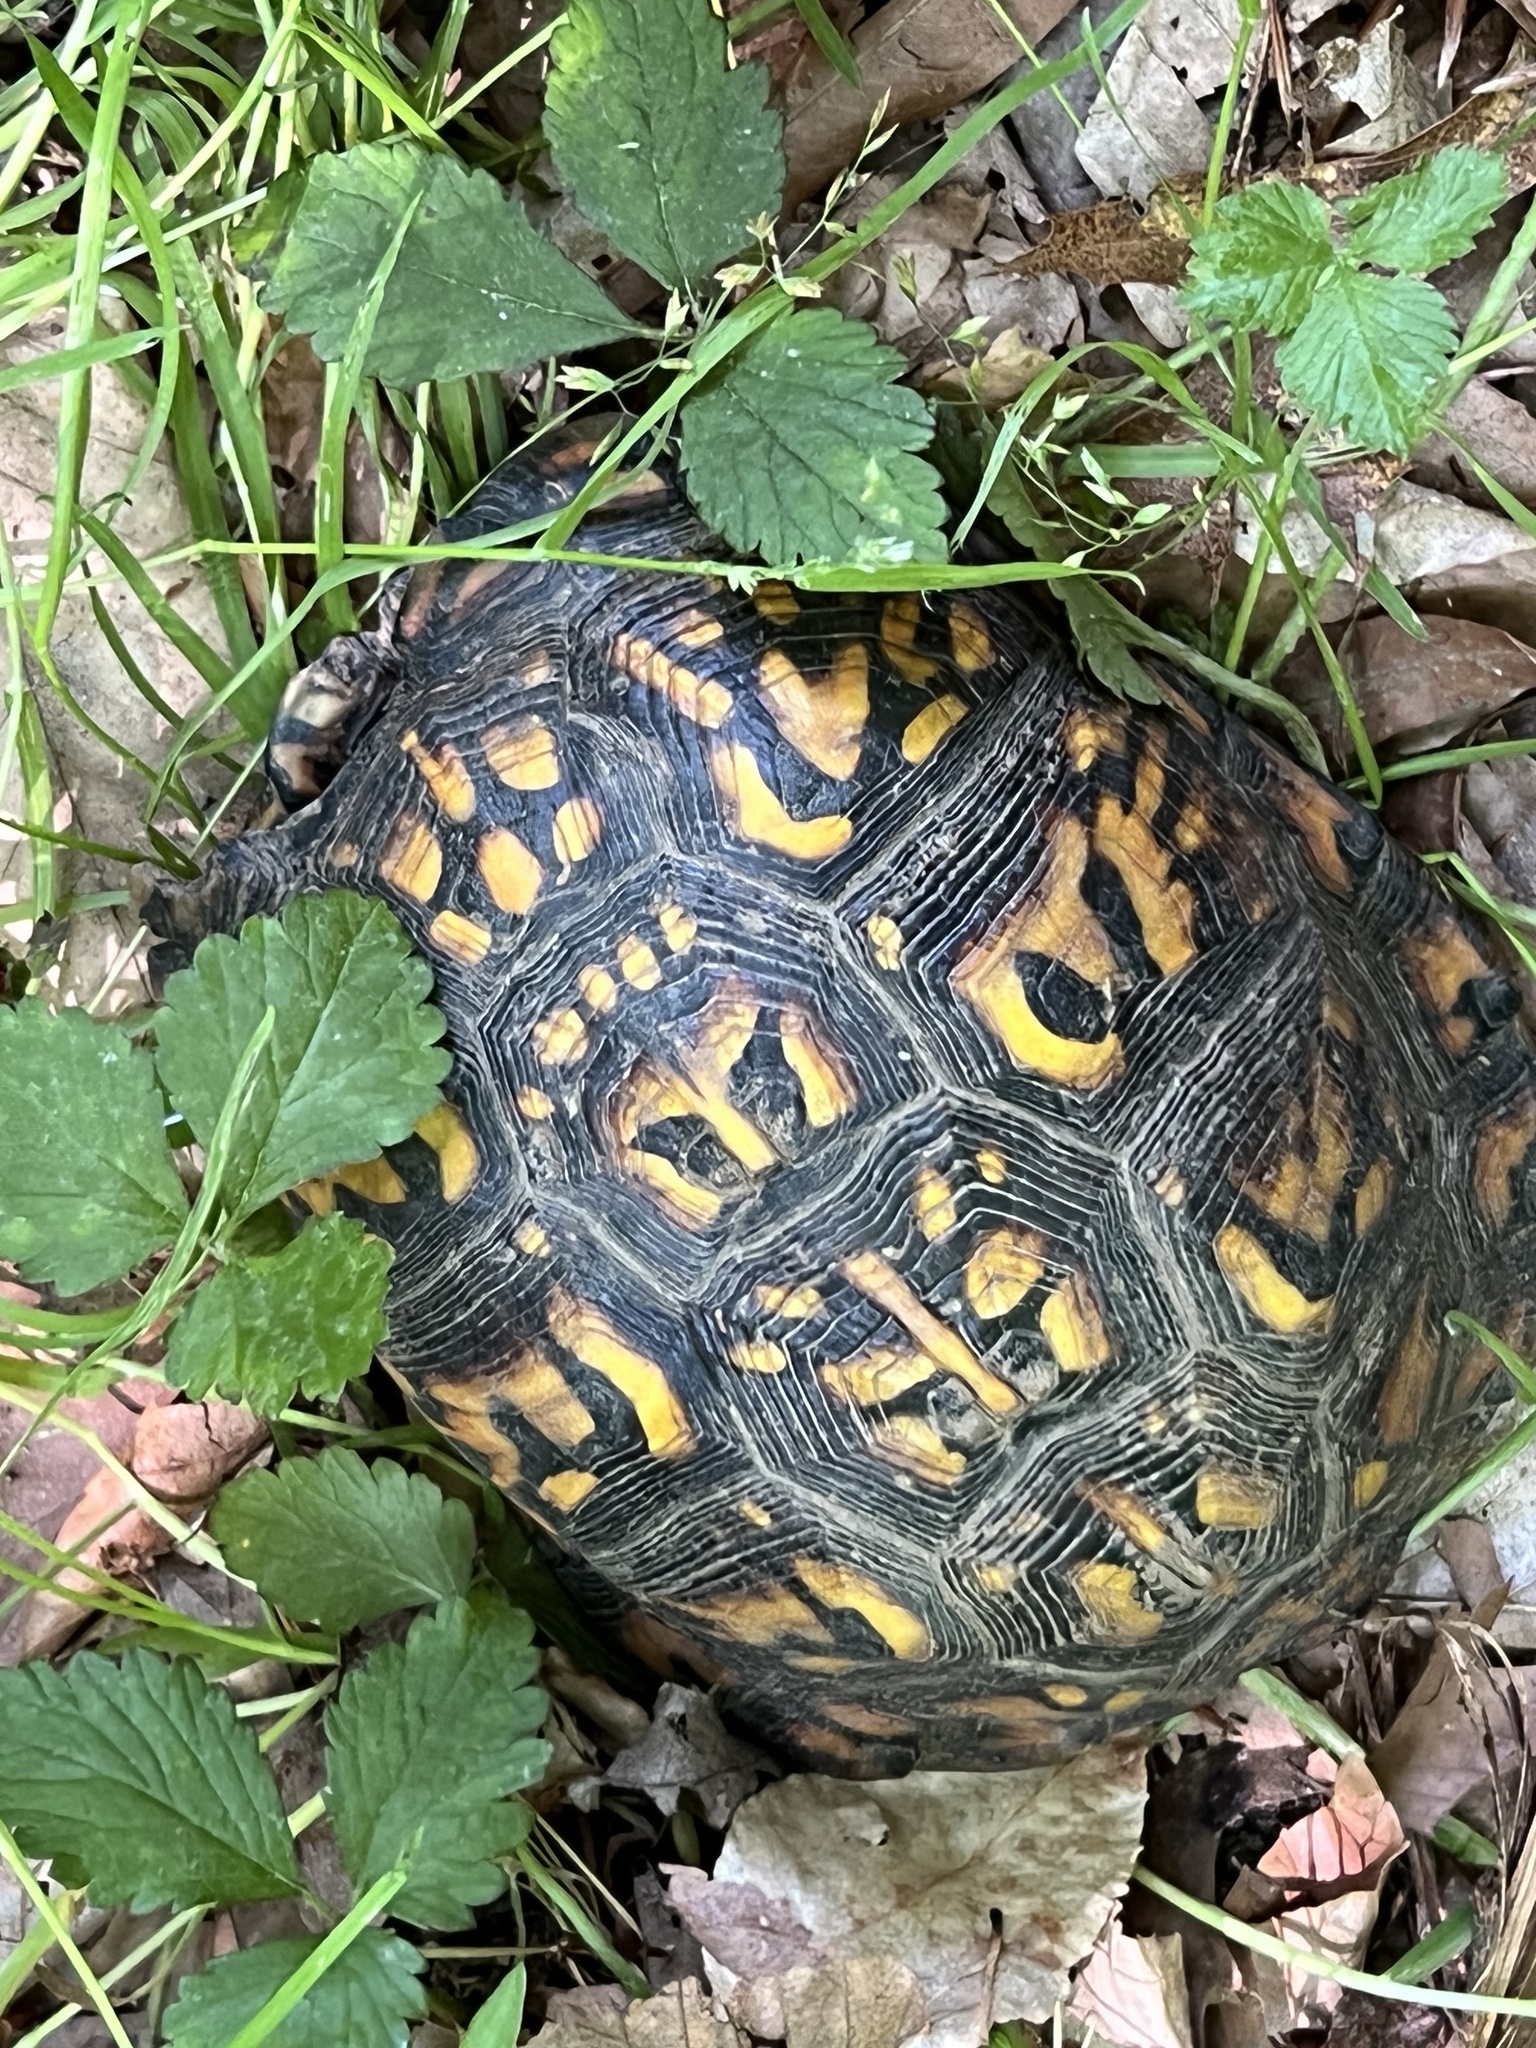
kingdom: Animalia
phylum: Chordata
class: Testudines
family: Emydidae
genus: Terrapene
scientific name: Terrapene carolina
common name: Common box turtle
